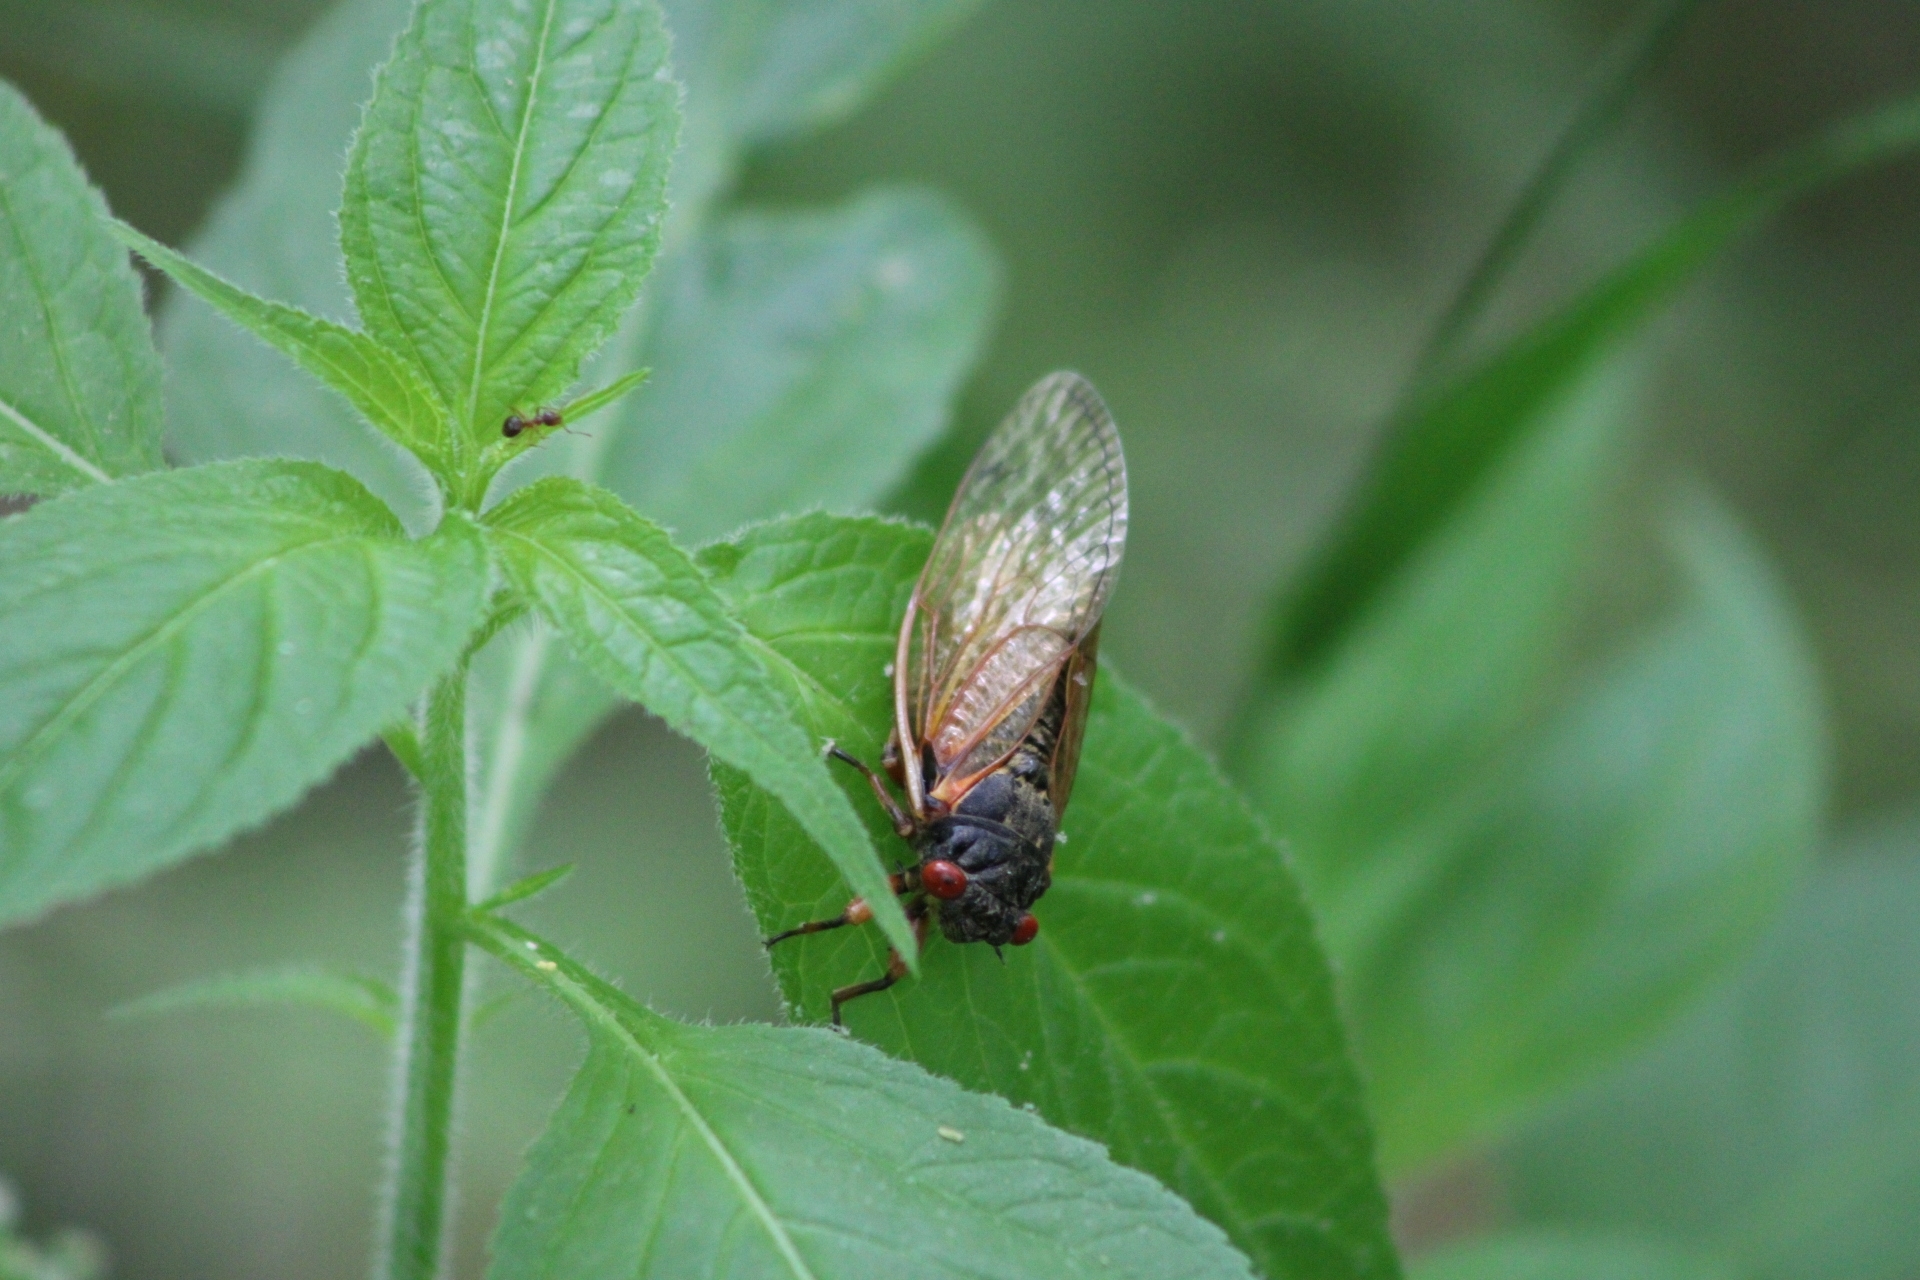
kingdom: Animalia
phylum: Arthropoda
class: Insecta
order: Hemiptera
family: Cicadidae
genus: Magicicada
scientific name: Magicicada
